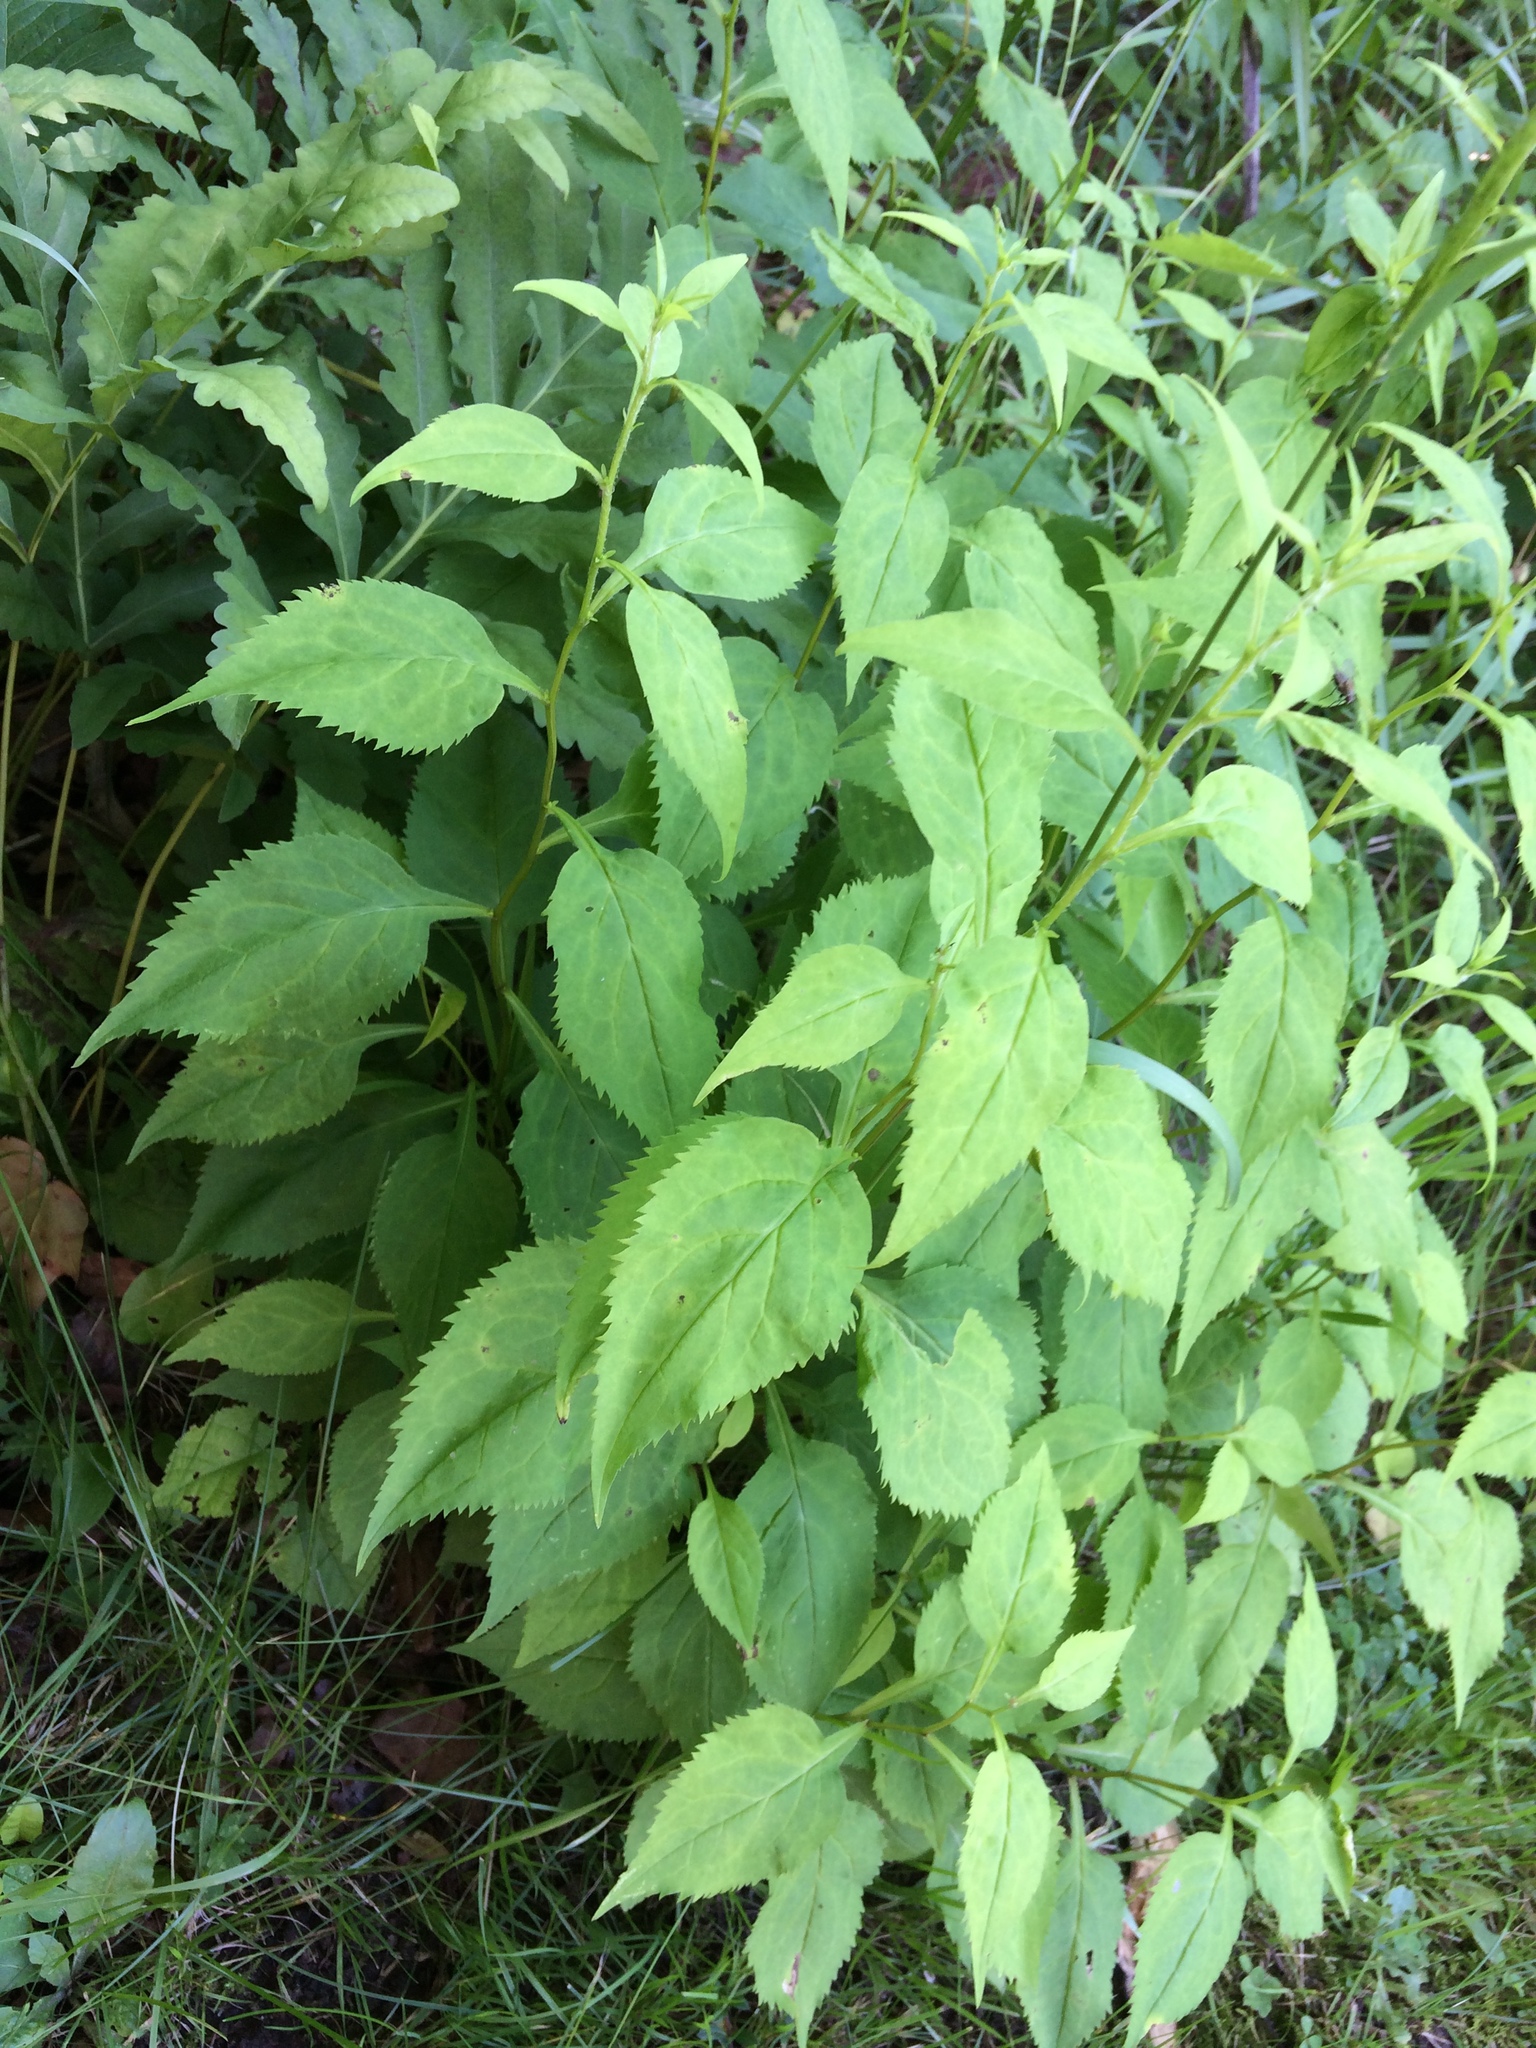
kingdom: Plantae
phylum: Tracheophyta
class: Magnoliopsida
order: Asterales
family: Asteraceae
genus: Solidago
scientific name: Solidago flexicaulis
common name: Zig-zag goldenrod
